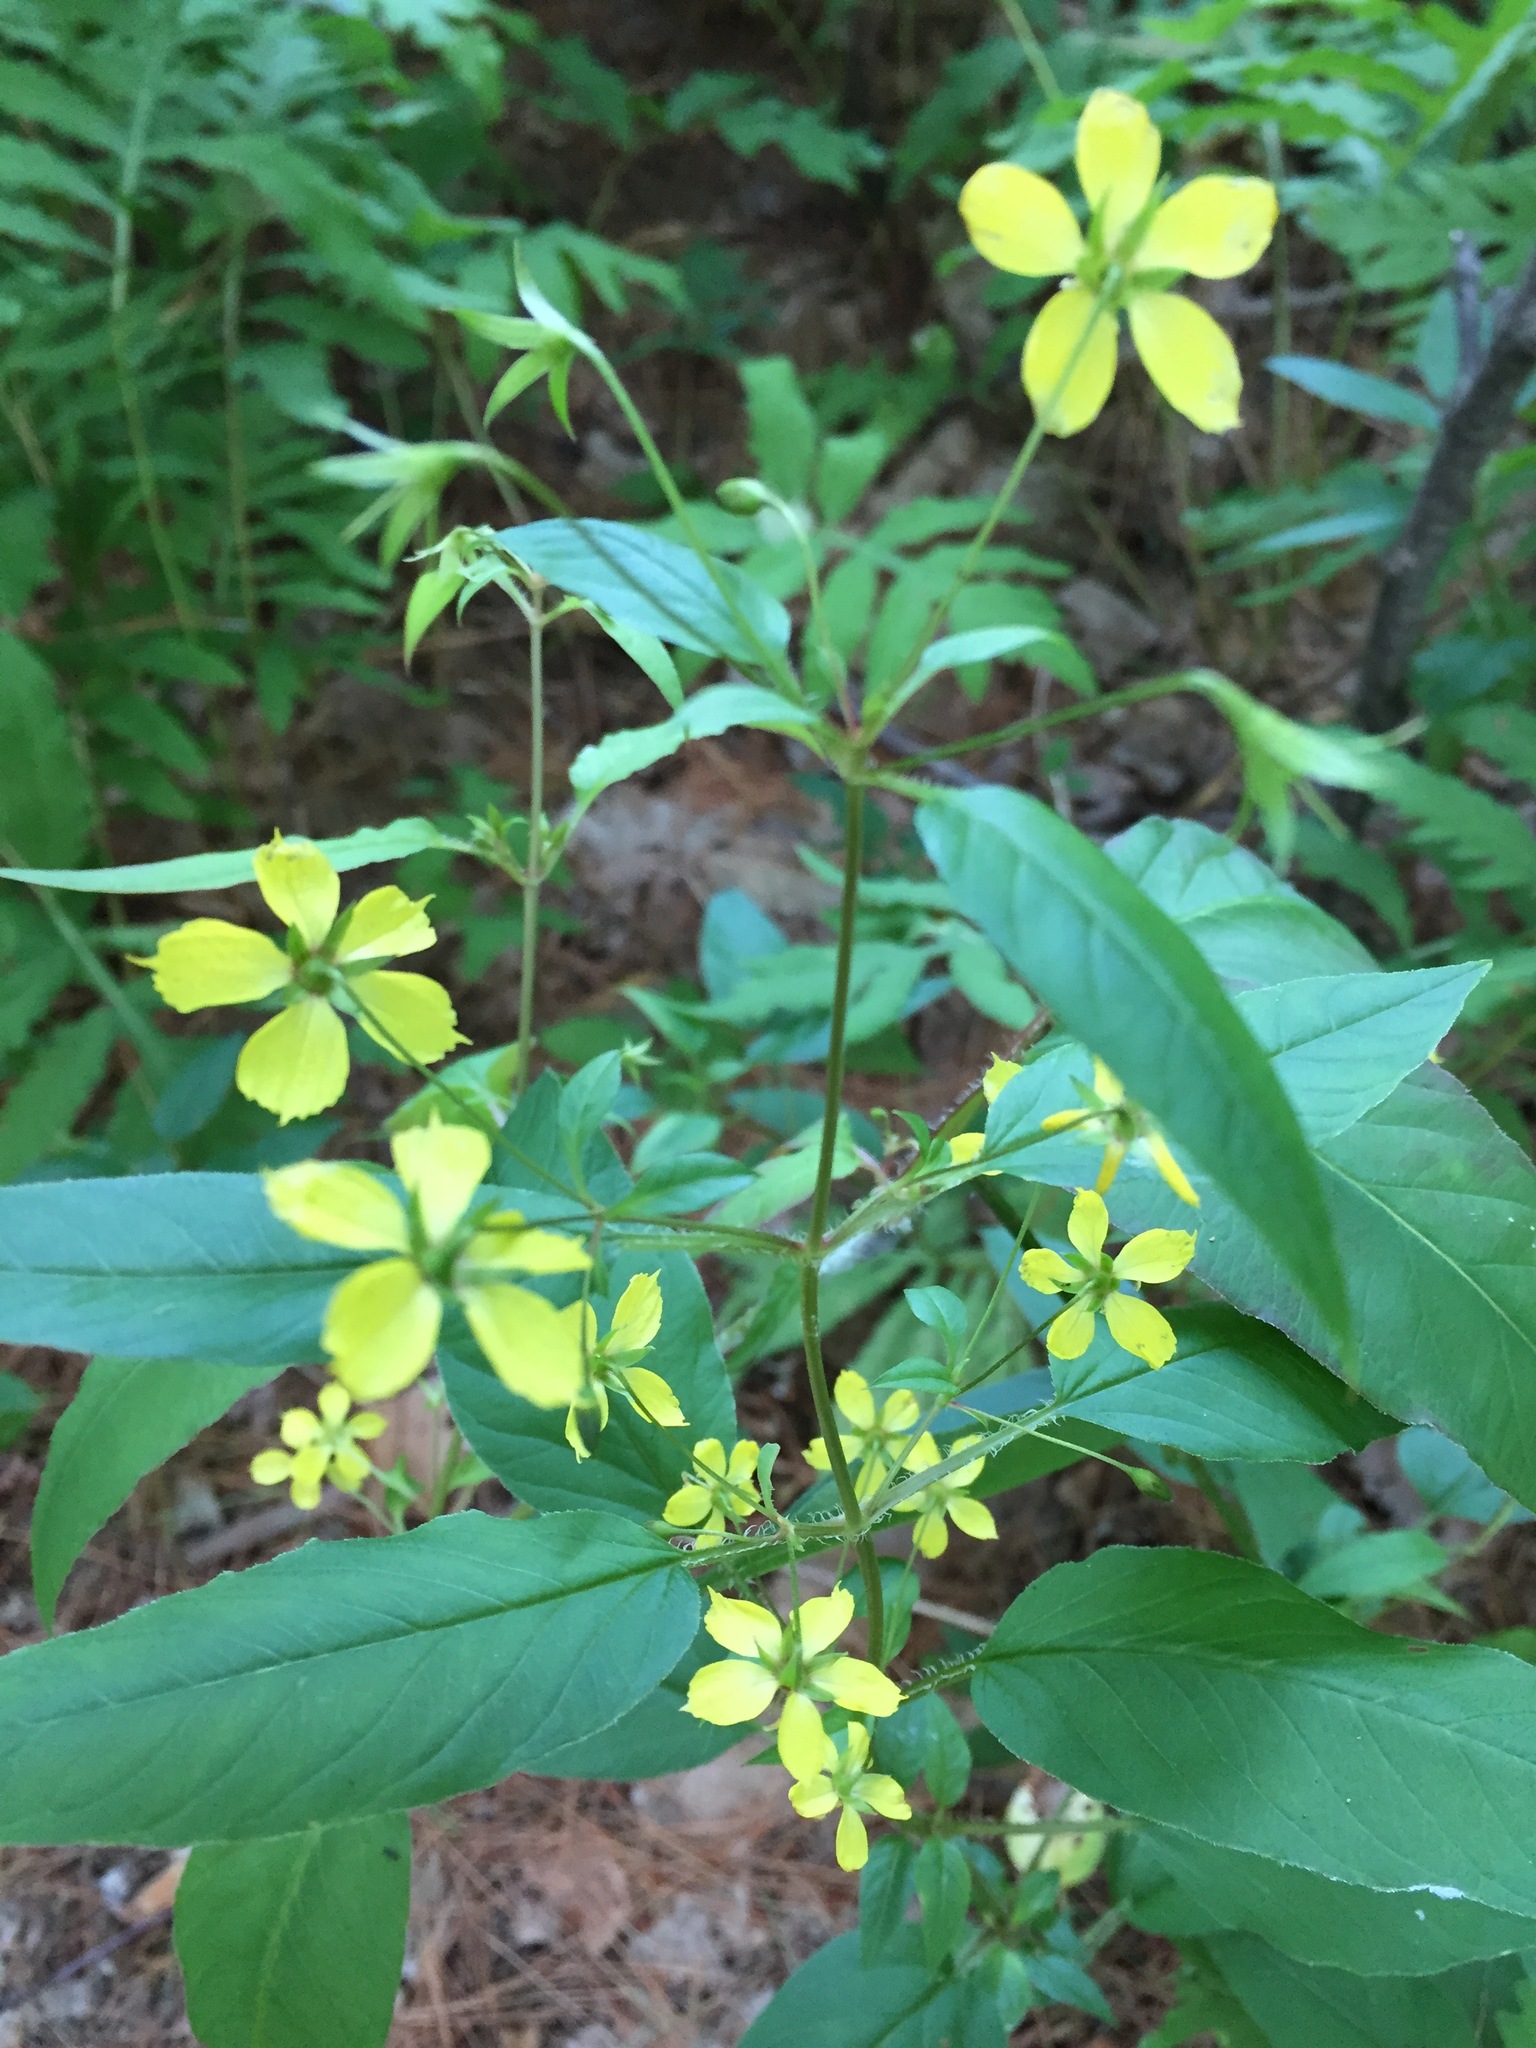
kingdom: Plantae
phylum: Tracheophyta
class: Magnoliopsida
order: Ericales
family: Primulaceae
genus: Lysimachia
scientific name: Lysimachia ciliata
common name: Fringed loosestrife
